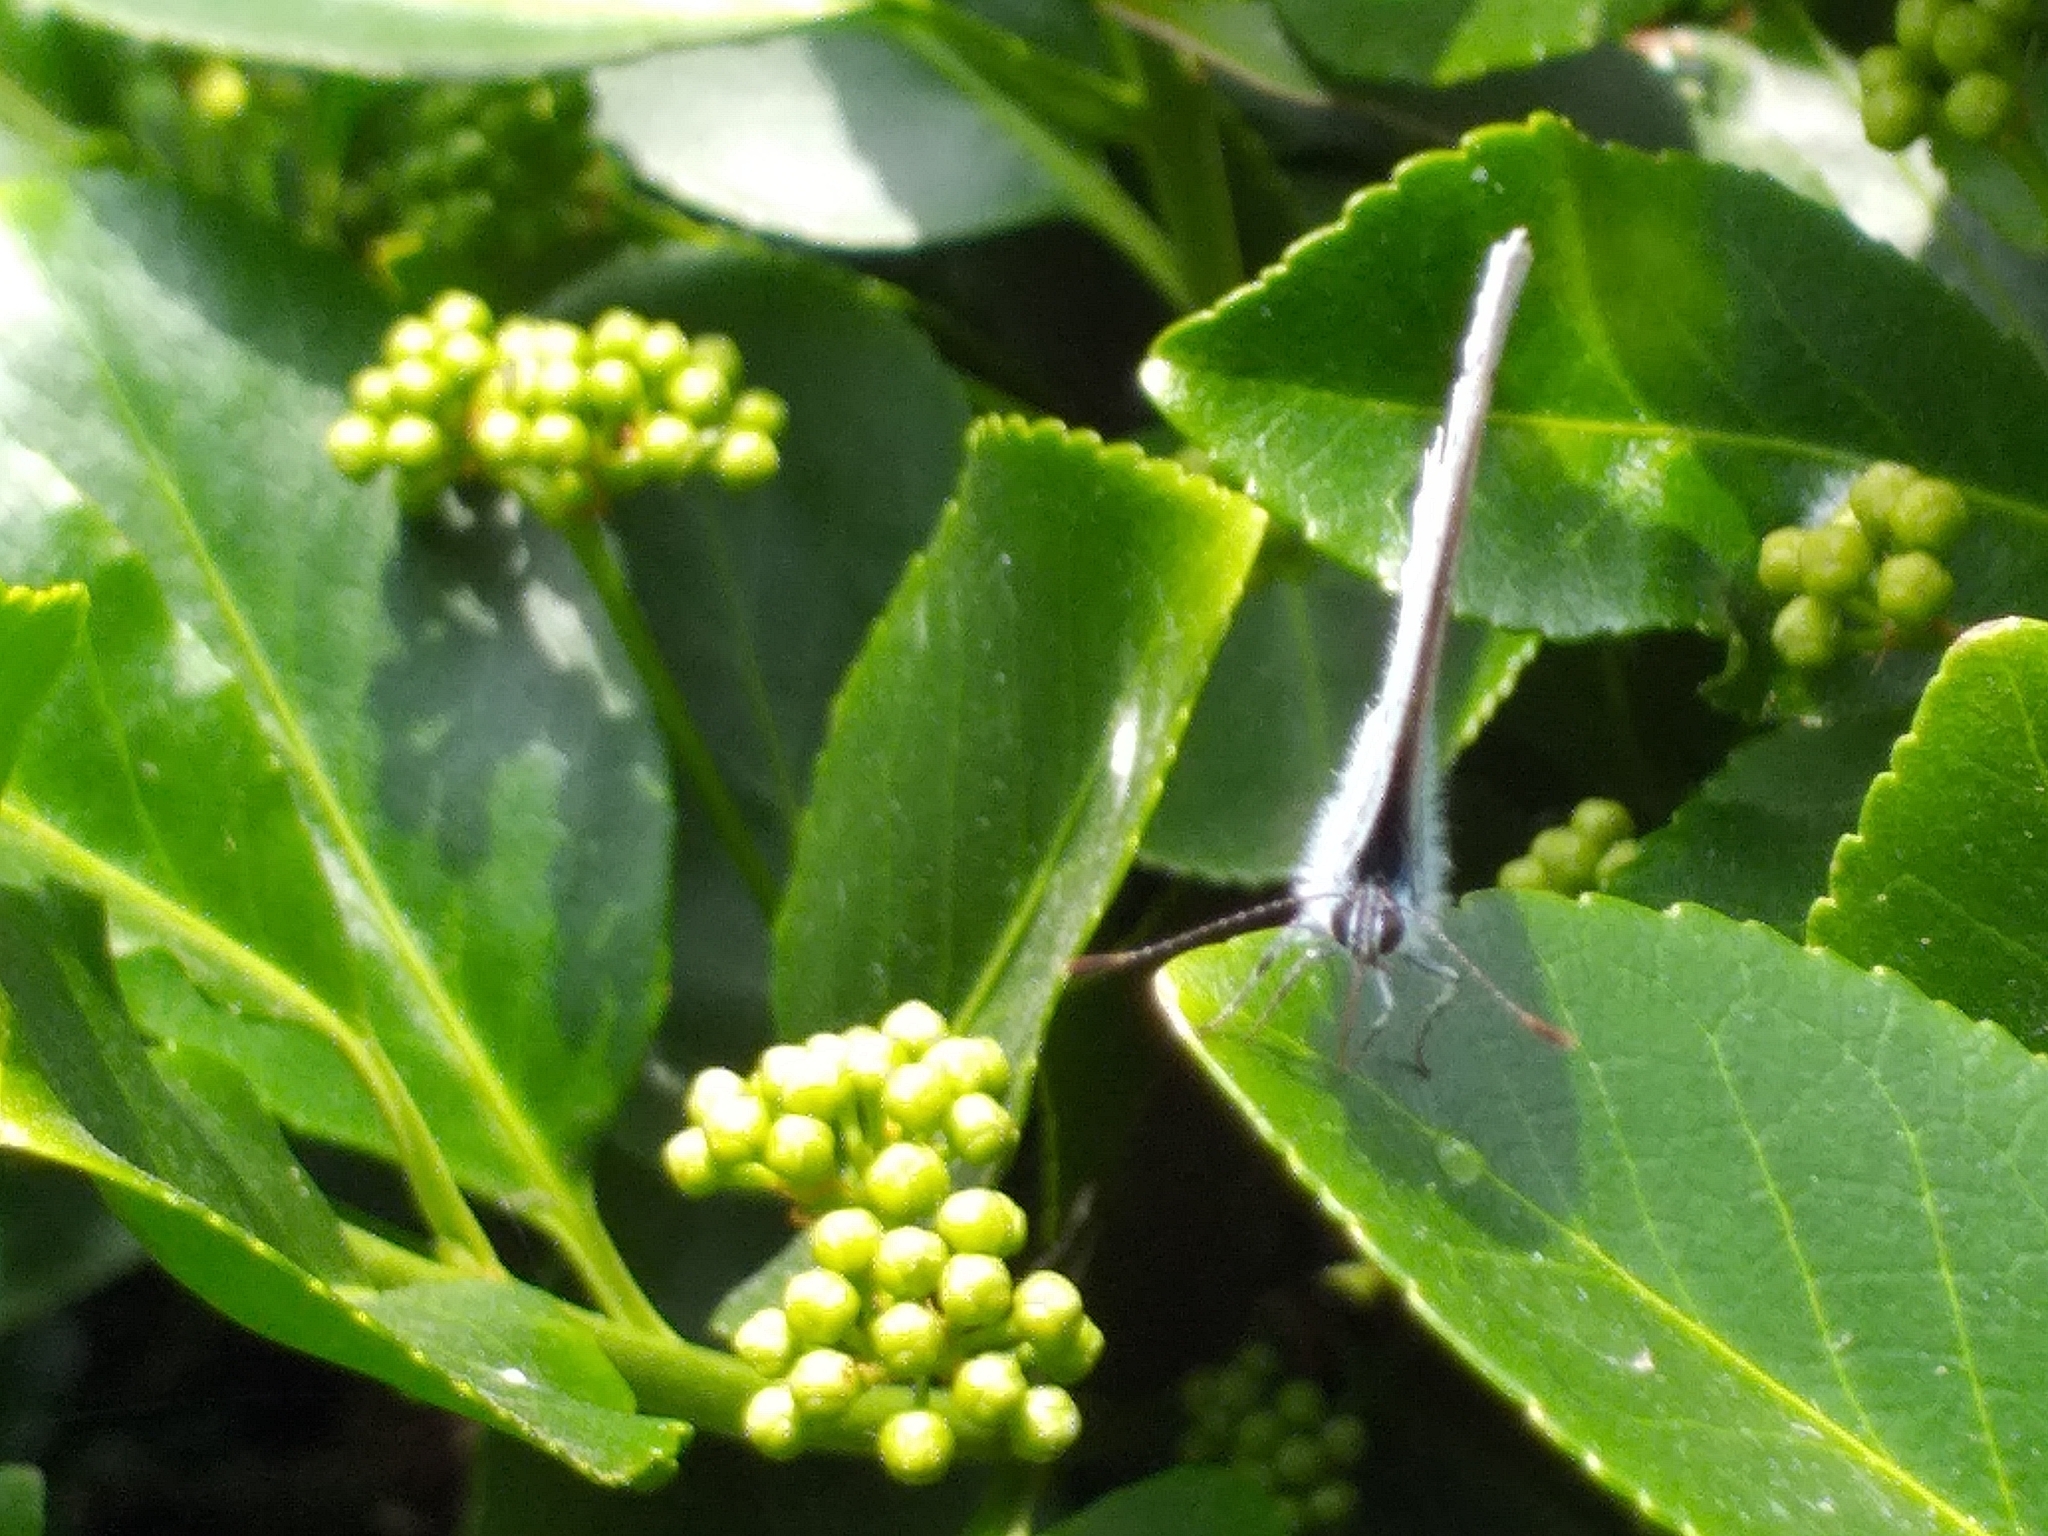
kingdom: Animalia
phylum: Arthropoda
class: Insecta
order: Lepidoptera
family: Lycaenidae
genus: Celastrina
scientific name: Celastrina argiolus
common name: Holly blue
